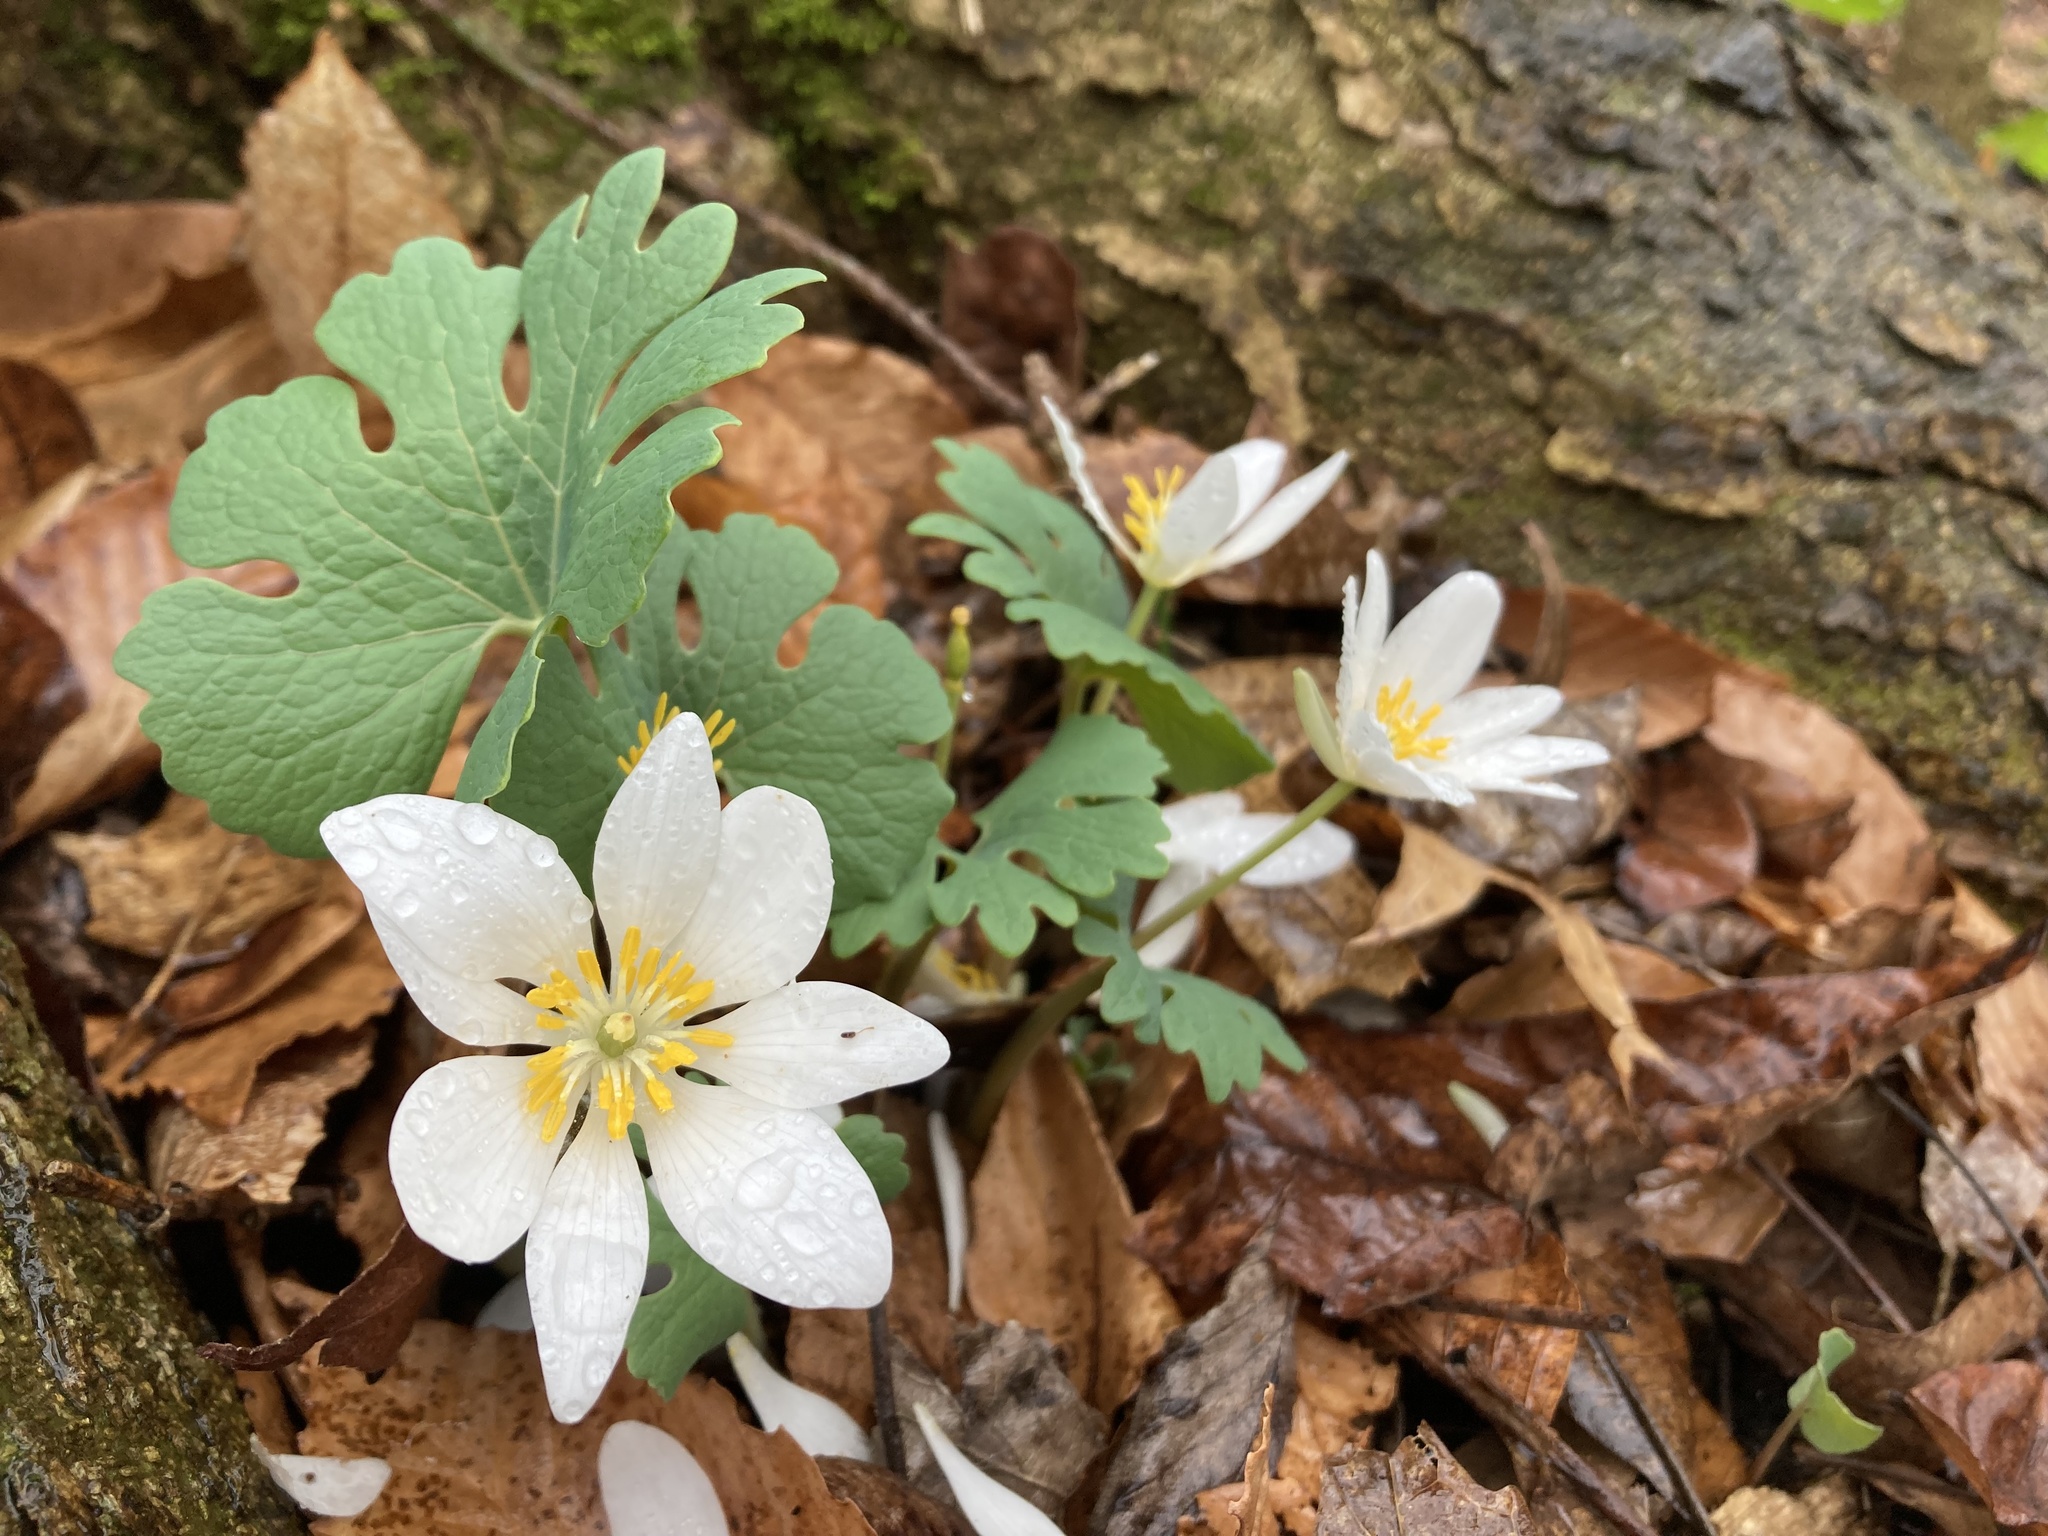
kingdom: Plantae
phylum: Tracheophyta
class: Magnoliopsida
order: Ranunculales
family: Papaveraceae
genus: Sanguinaria
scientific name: Sanguinaria canadensis
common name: Bloodroot
